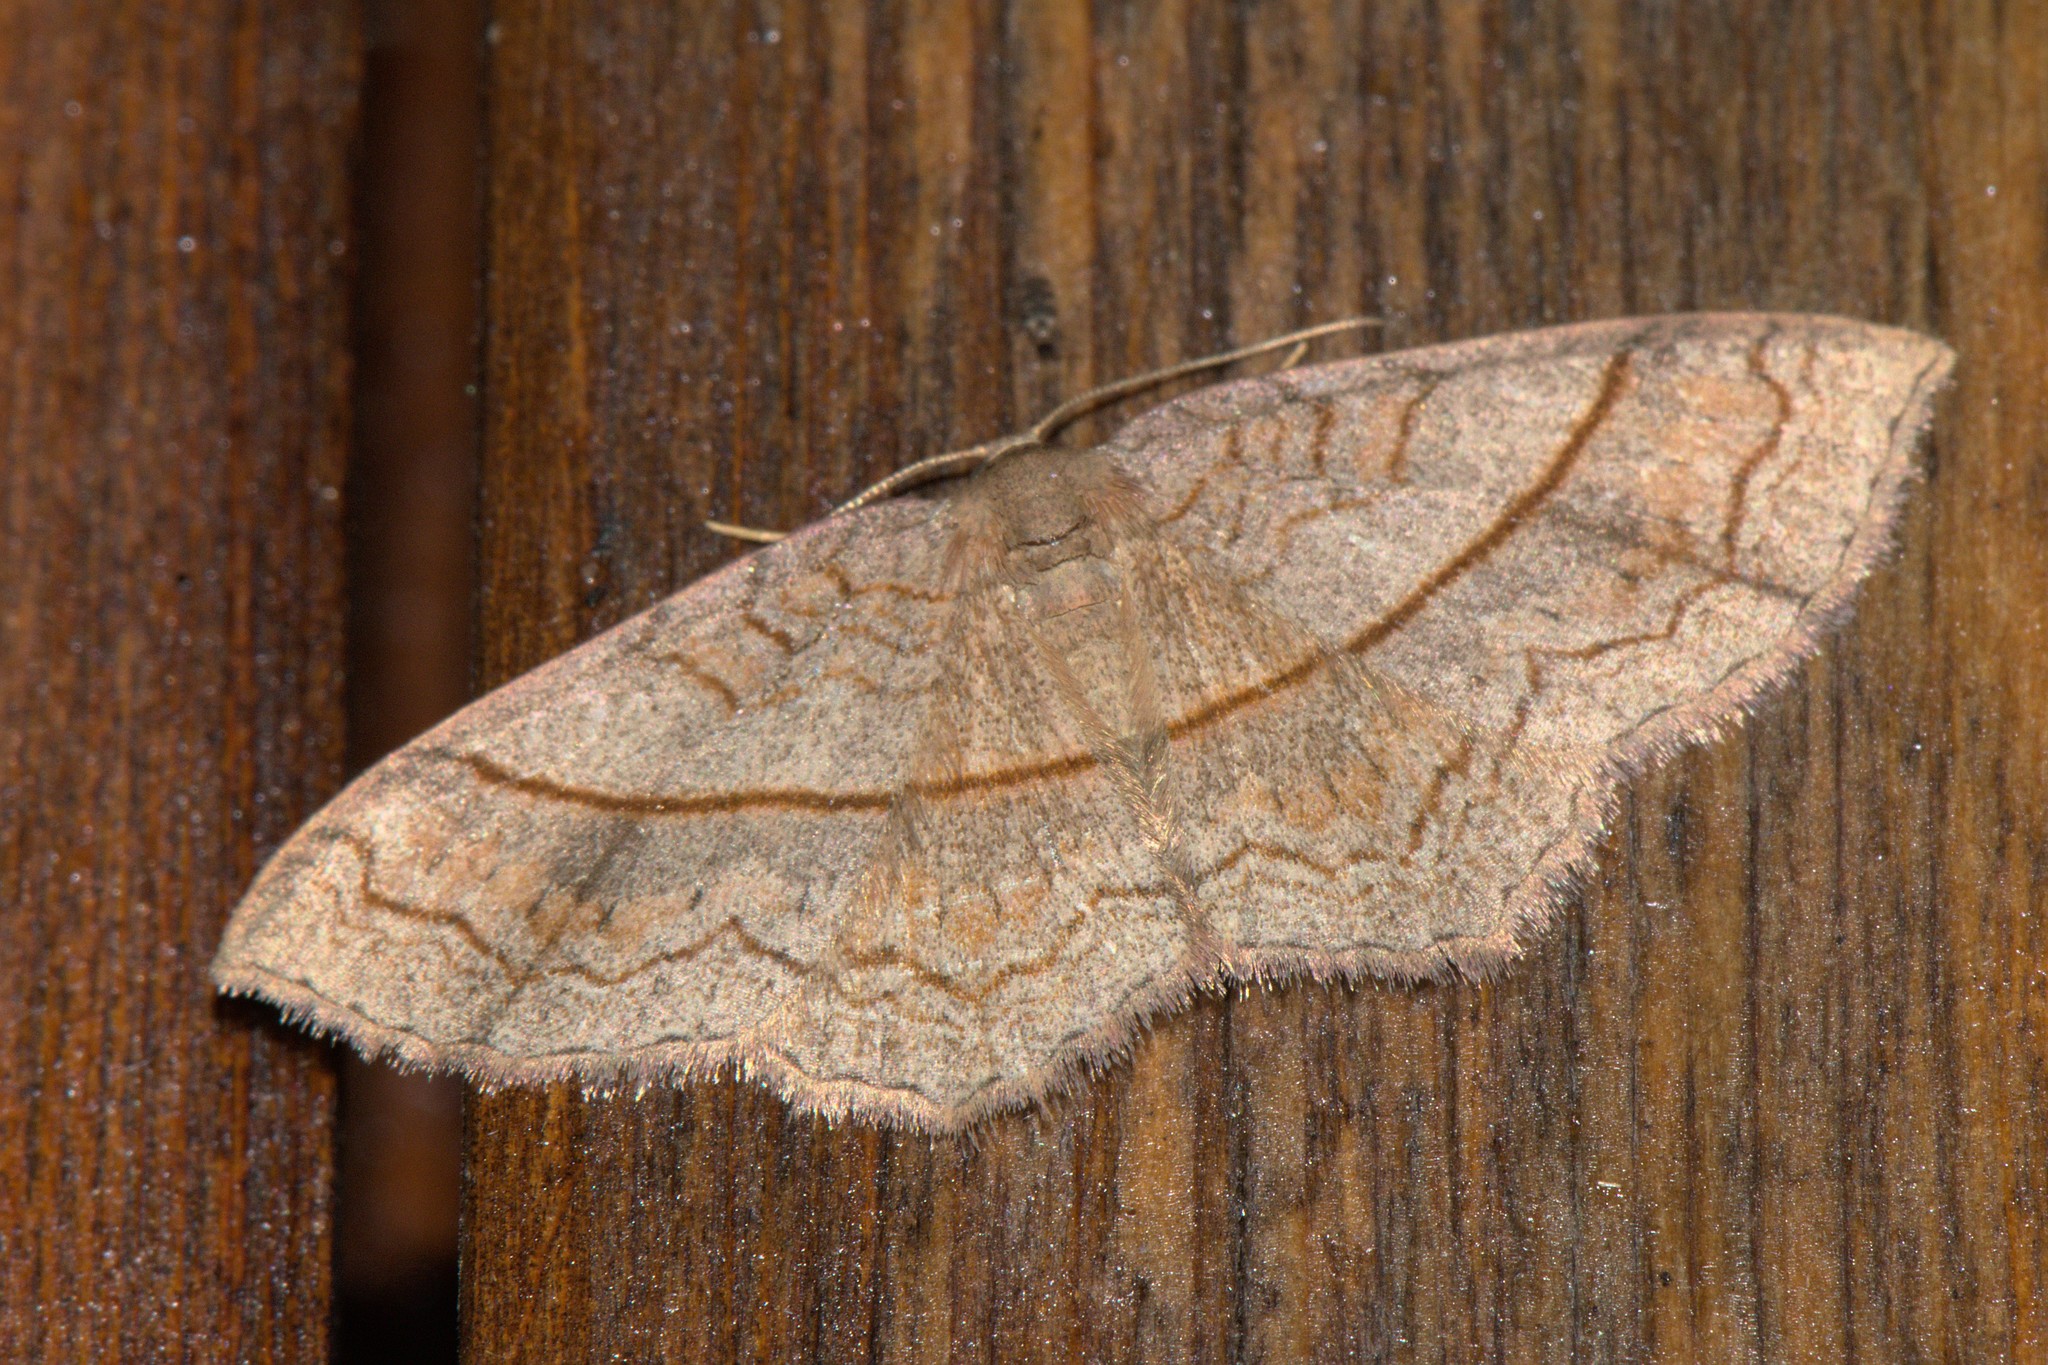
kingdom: Animalia
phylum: Arthropoda
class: Insecta
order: Lepidoptera
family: Geometridae
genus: Hydrelia
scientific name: Hydrelia sericea
